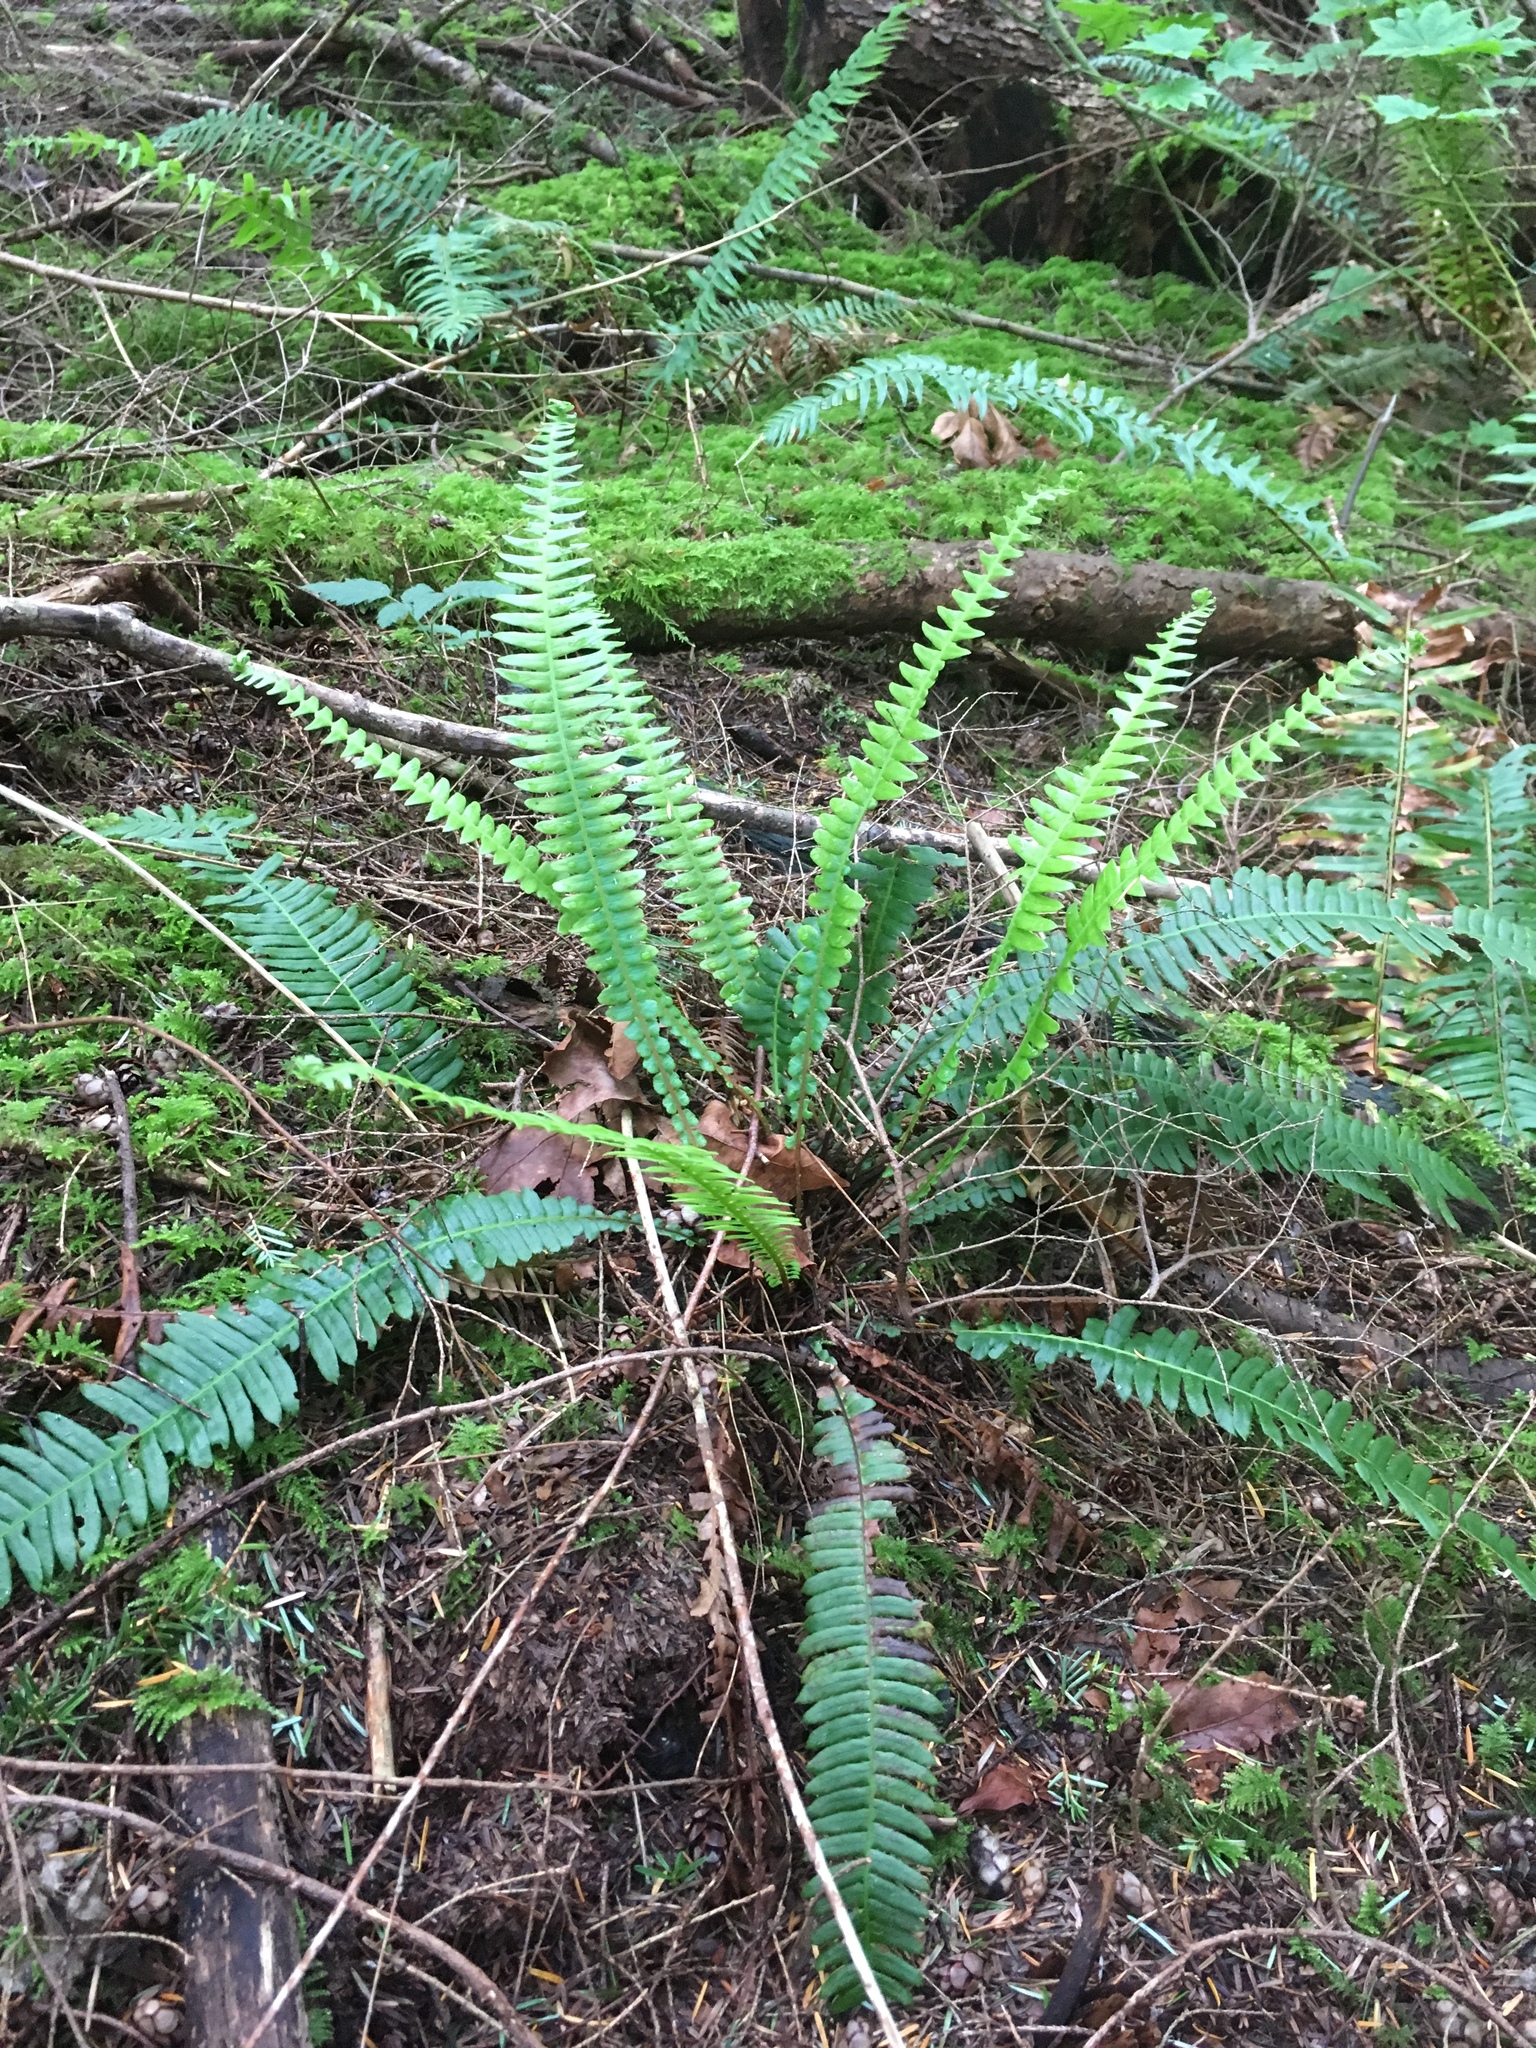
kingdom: Plantae
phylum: Tracheophyta
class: Polypodiopsida
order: Polypodiales
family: Blechnaceae
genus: Struthiopteris
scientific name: Struthiopteris spicant
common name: Deer fern
